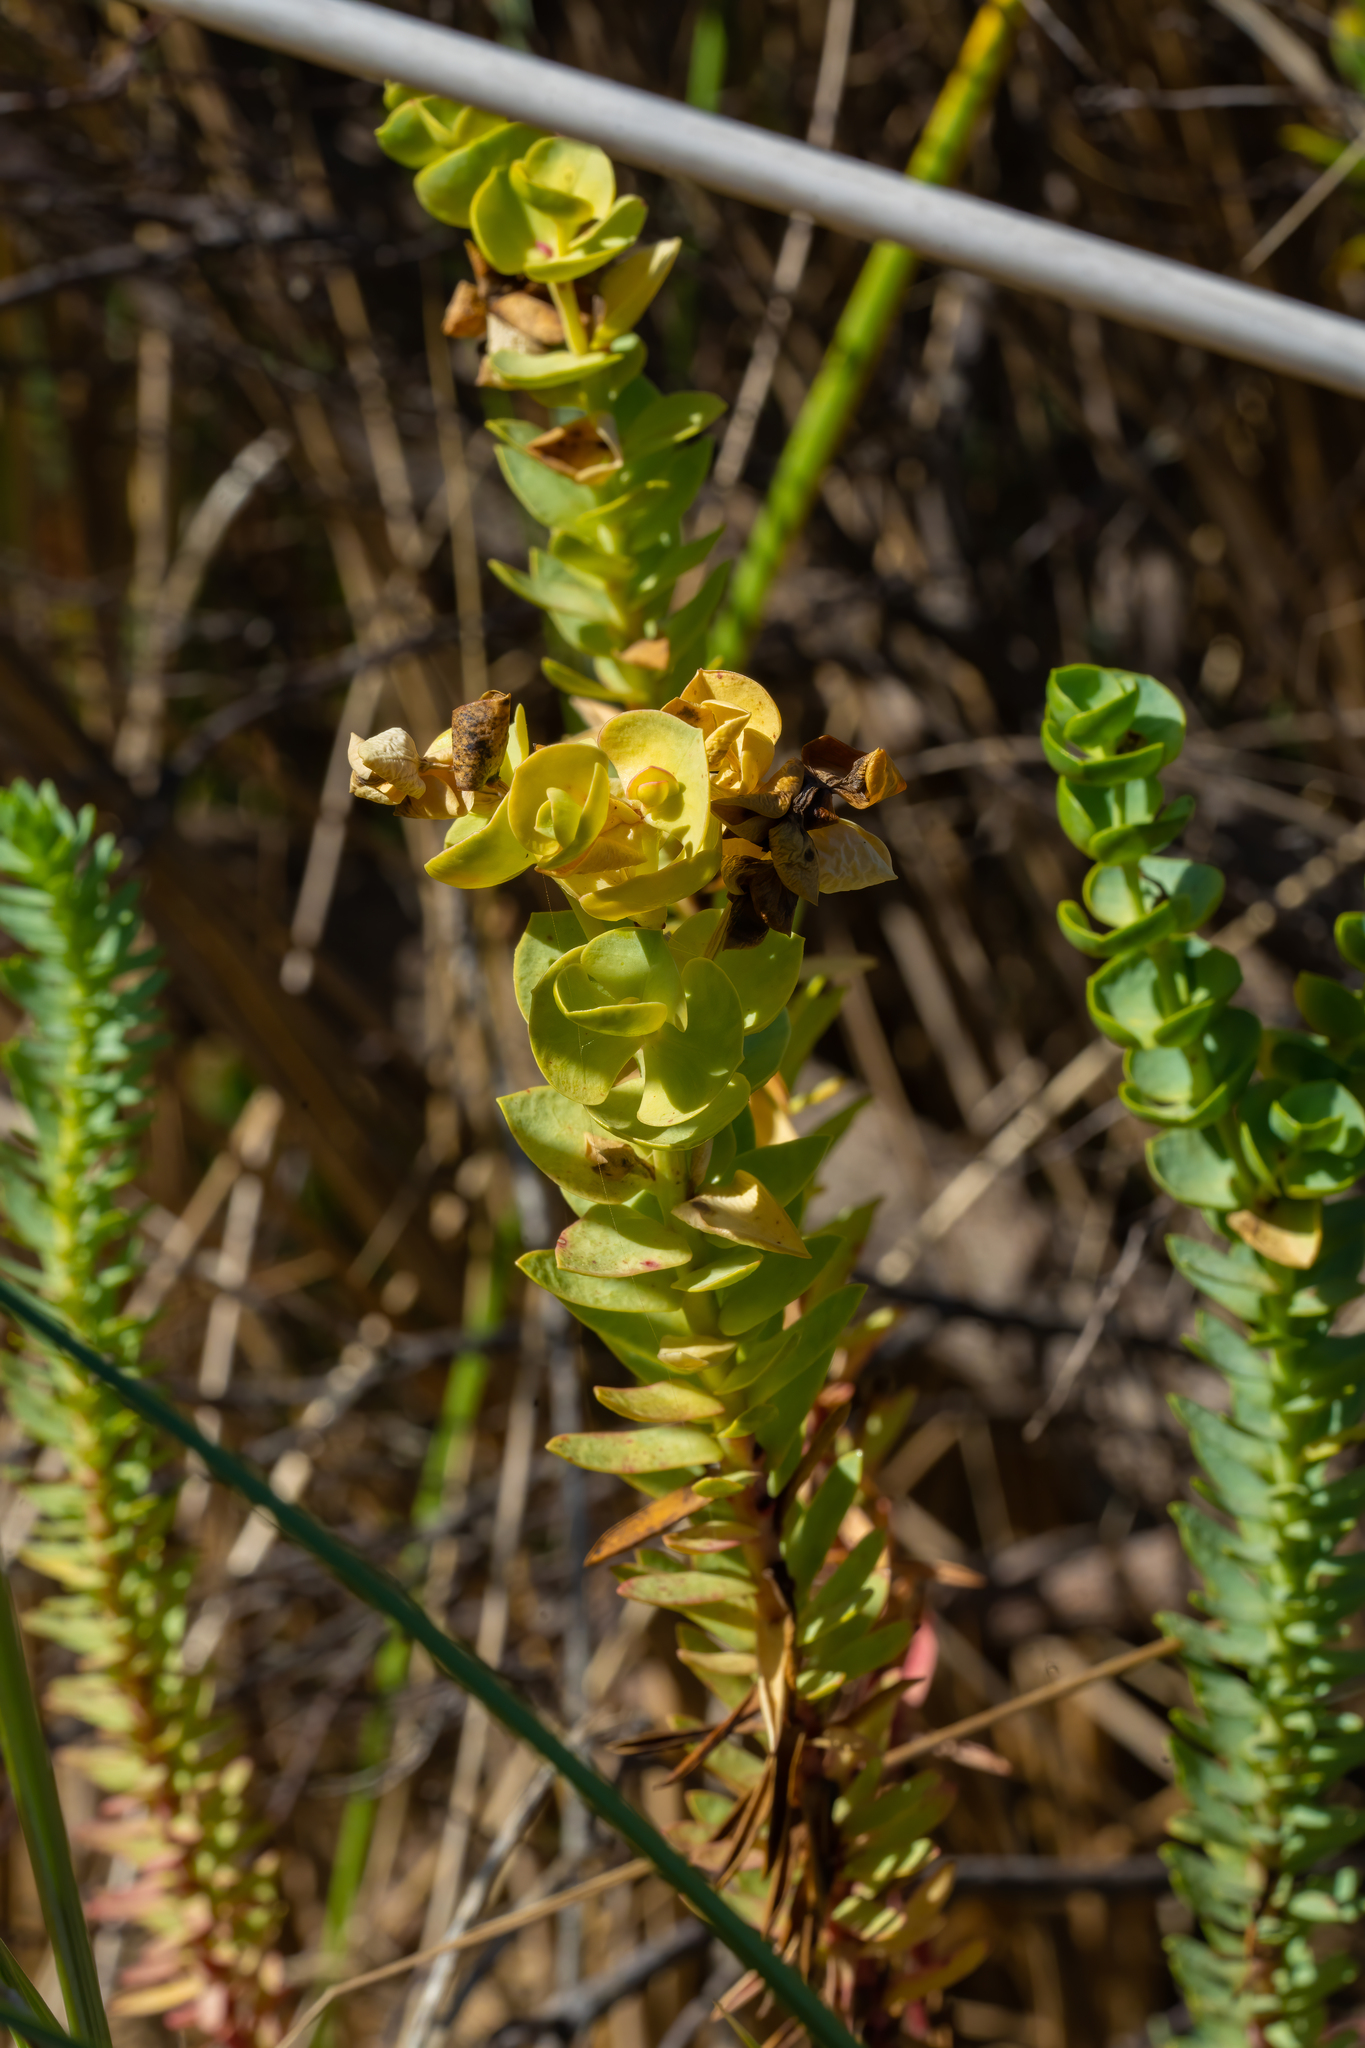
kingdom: Plantae
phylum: Tracheophyta
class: Magnoliopsida
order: Malpighiales
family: Euphorbiaceae
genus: Euphorbia
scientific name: Euphorbia paralias
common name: Sea spurge
